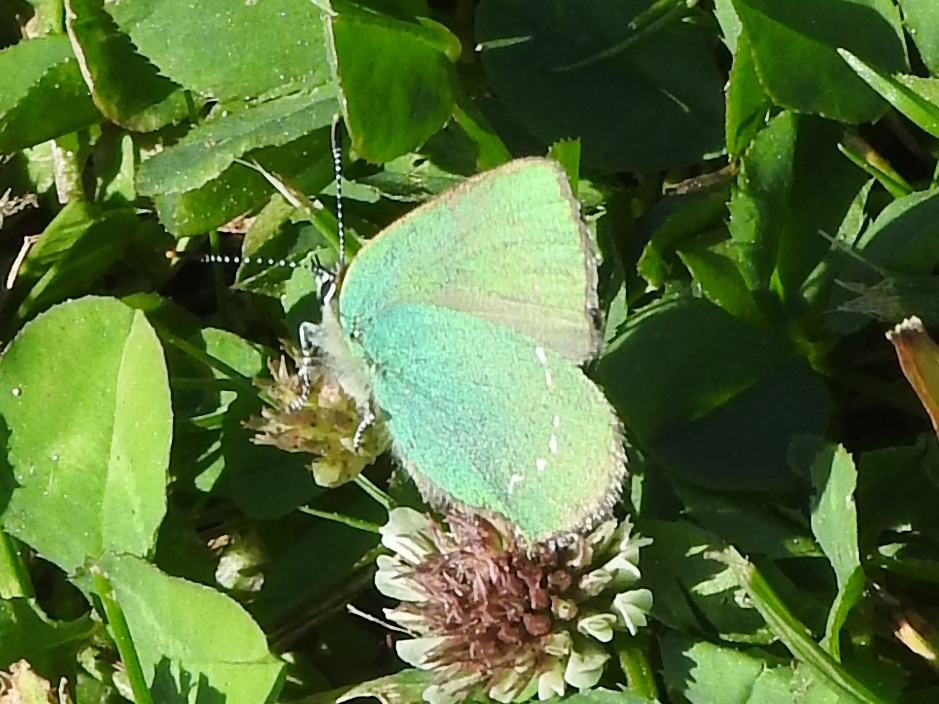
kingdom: Animalia
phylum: Arthropoda
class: Insecta
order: Lepidoptera
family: Lycaenidae
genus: Callophrys
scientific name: Callophrys rubi
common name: Green hairstreak
